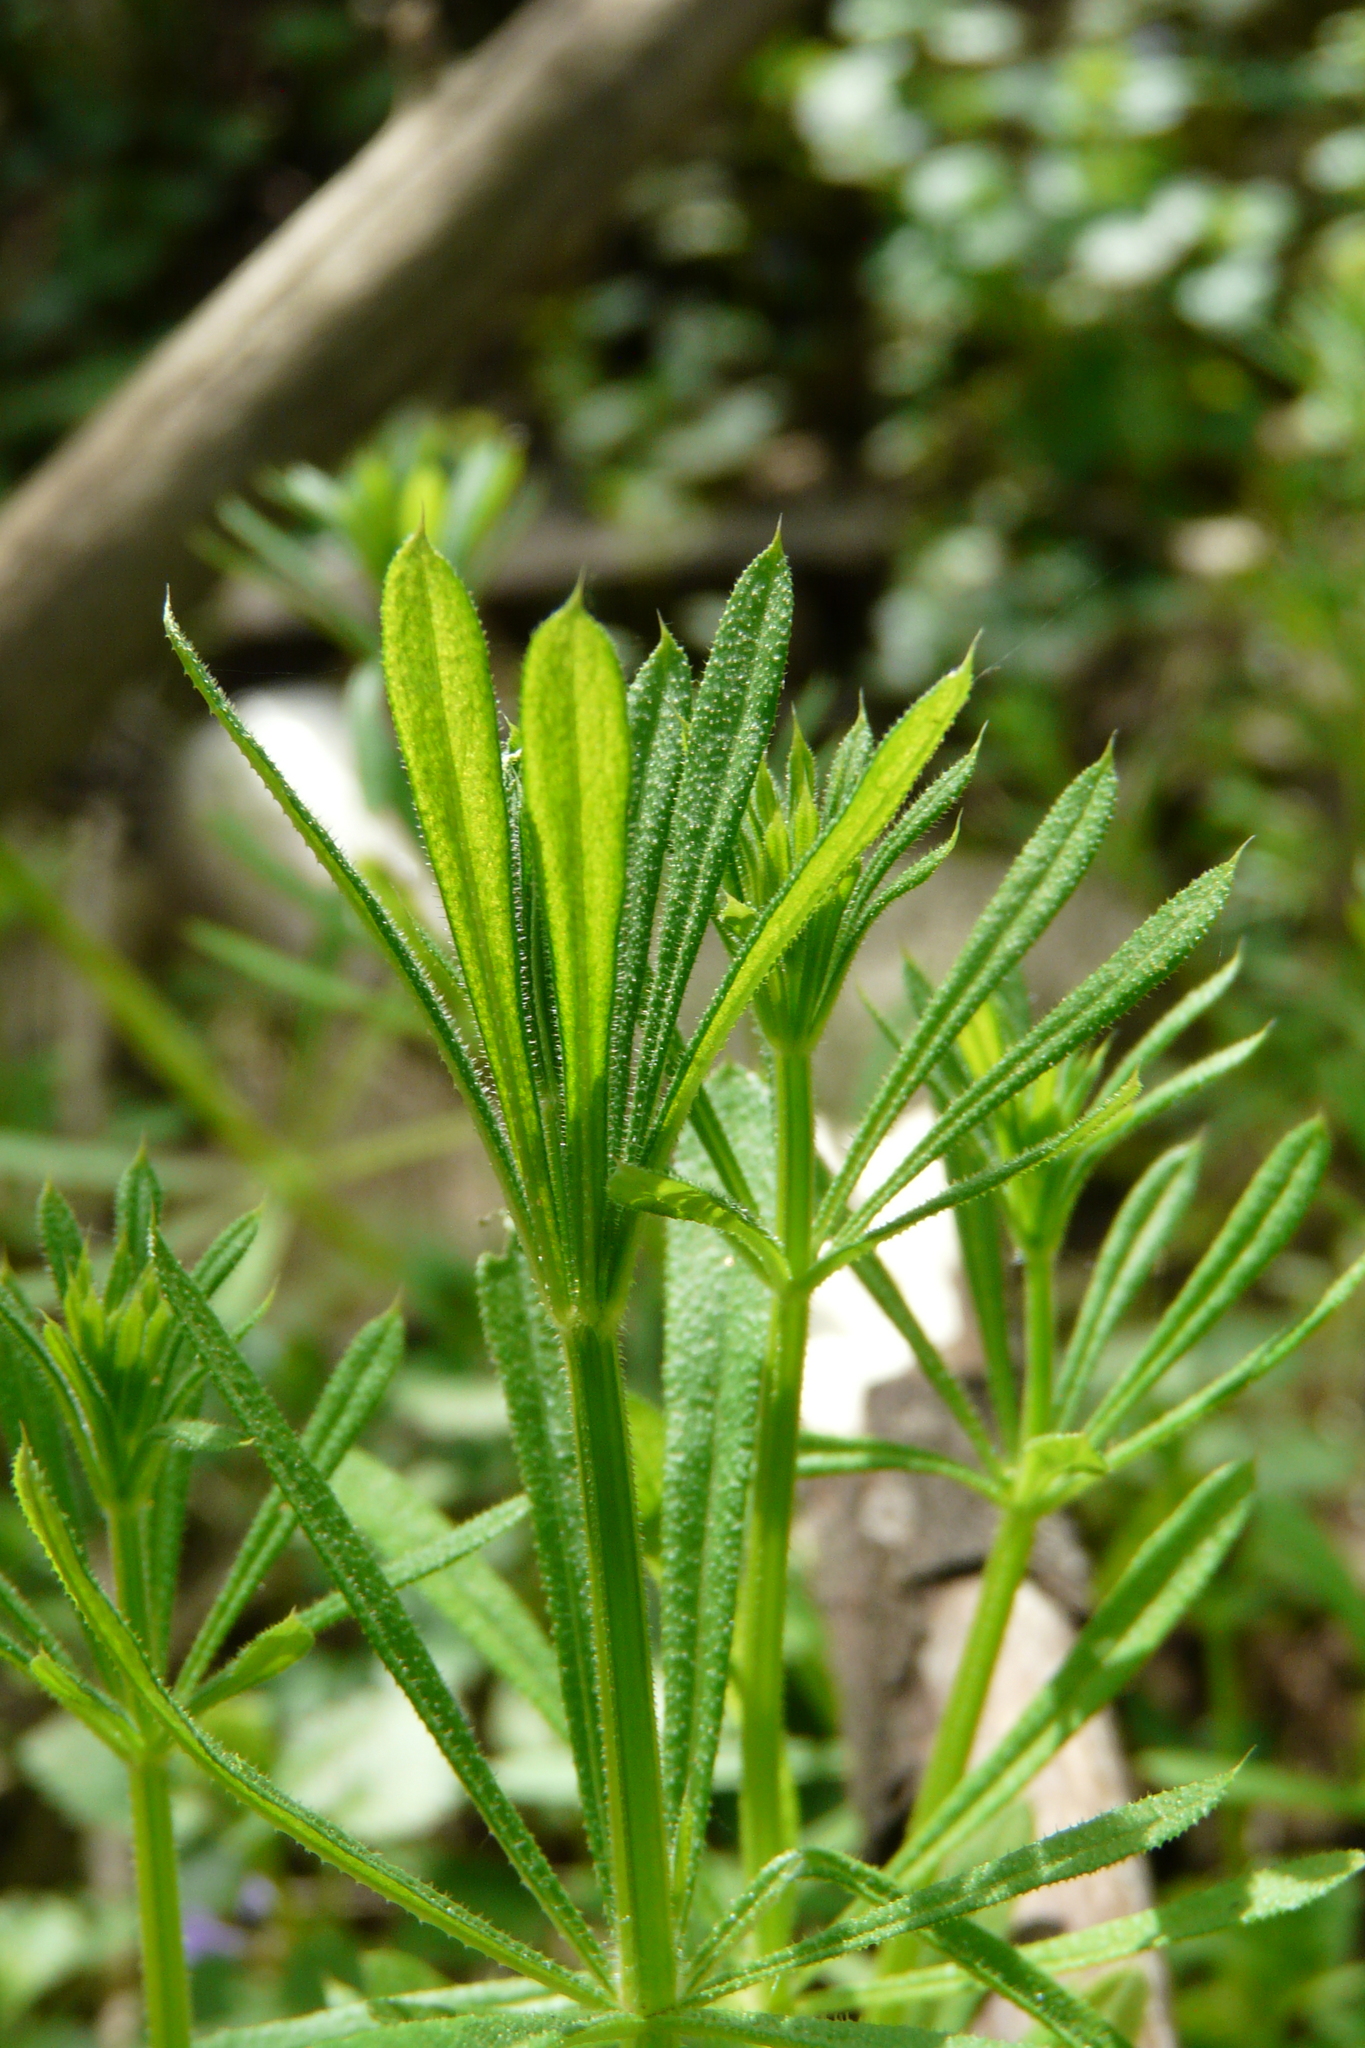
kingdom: Plantae
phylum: Tracheophyta
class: Magnoliopsida
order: Gentianales
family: Rubiaceae
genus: Galium
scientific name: Galium aparine
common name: Cleavers
